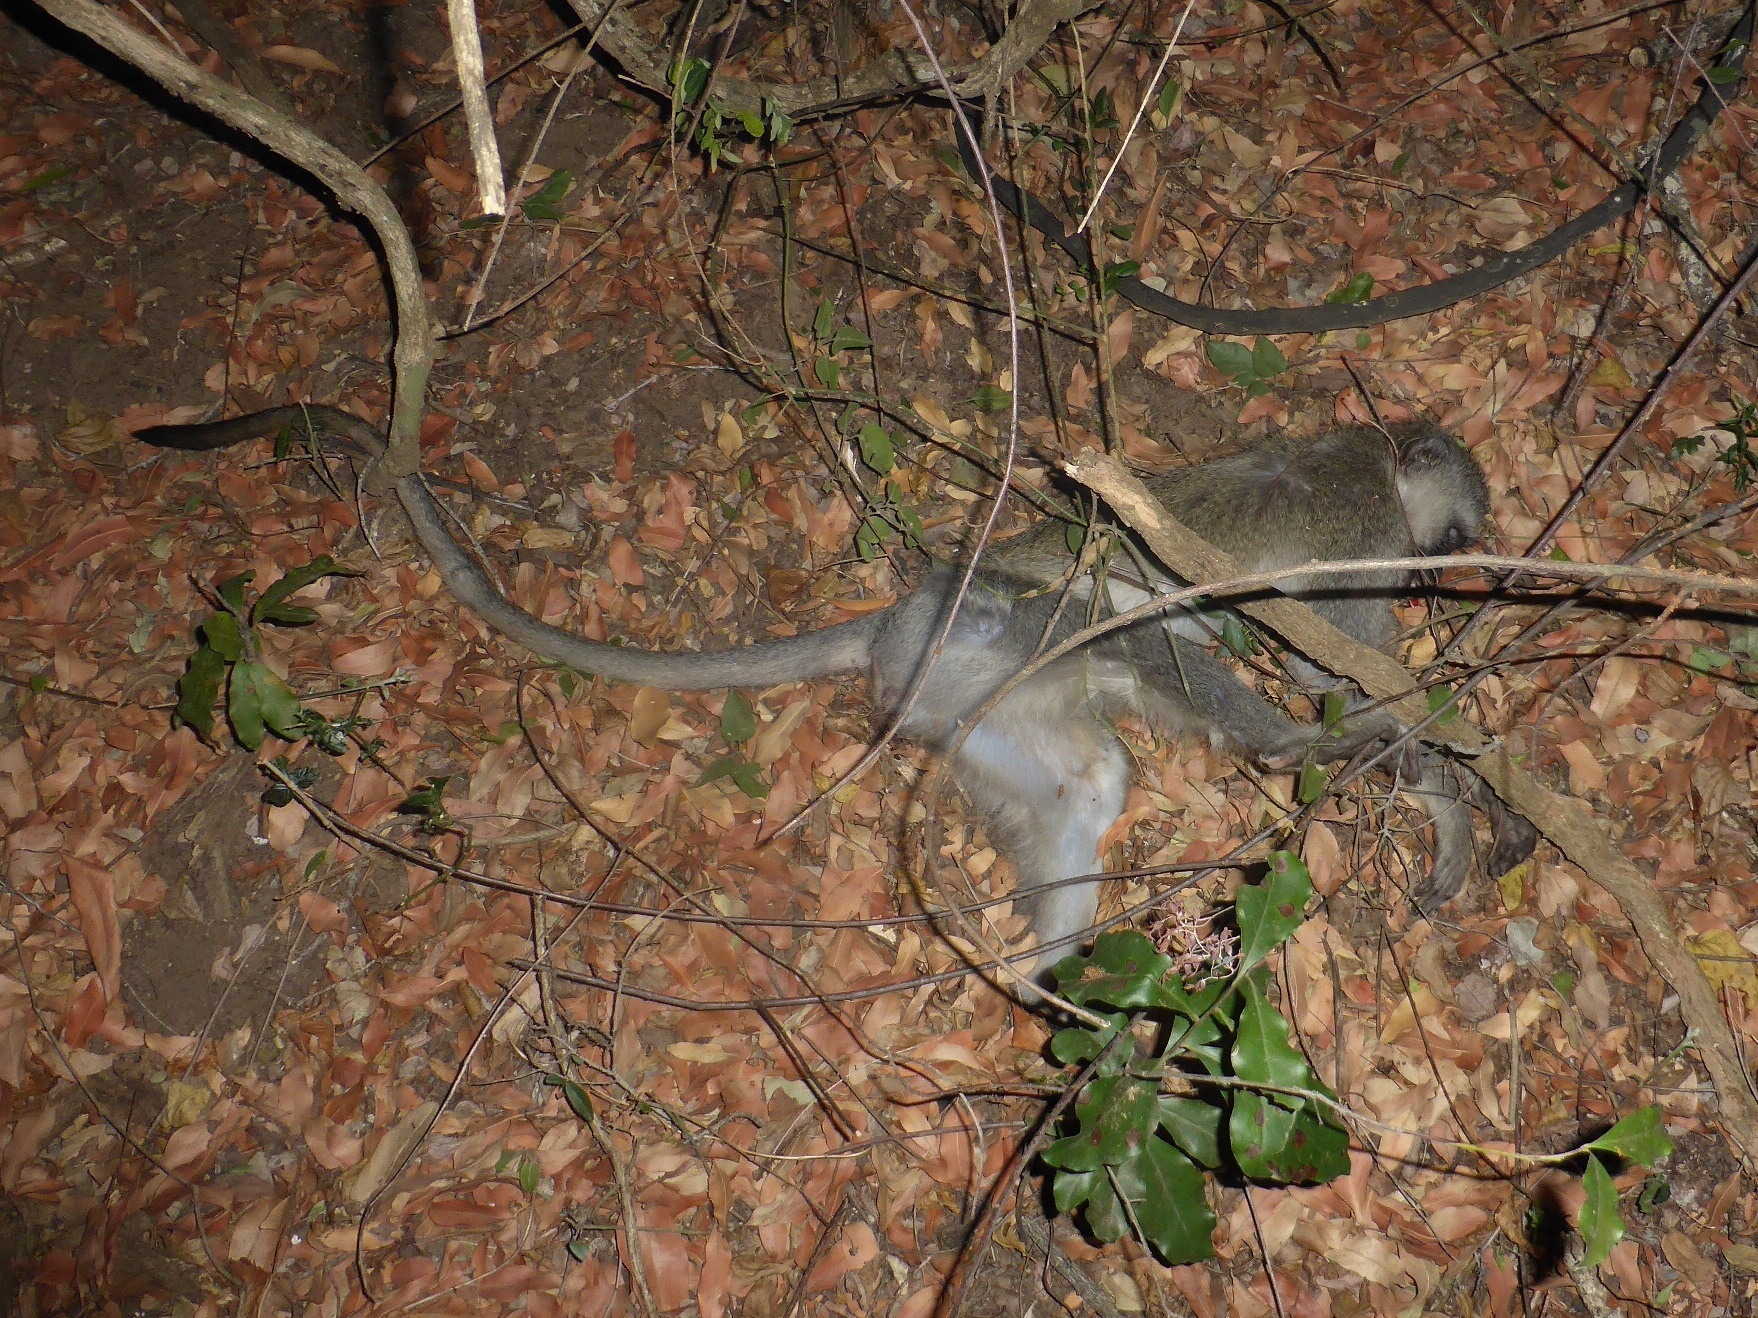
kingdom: Animalia
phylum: Chordata
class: Mammalia
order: Primates
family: Cercopithecidae
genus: Chlorocebus
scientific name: Chlorocebus pygerythrus
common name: Vervet monkey
